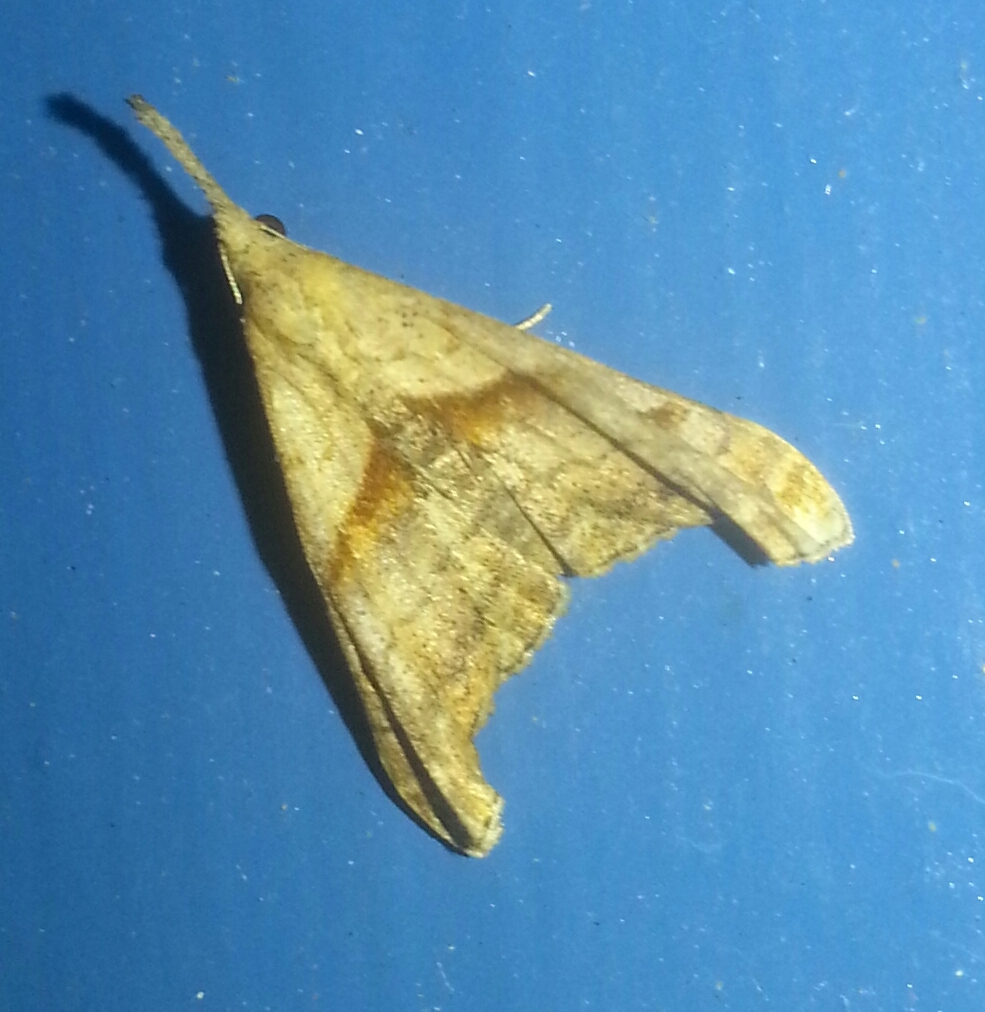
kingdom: Animalia
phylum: Arthropoda
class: Insecta
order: Lepidoptera
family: Erebidae
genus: Palthis
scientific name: Palthis angulalis
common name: Dark-spotted palthis moth
